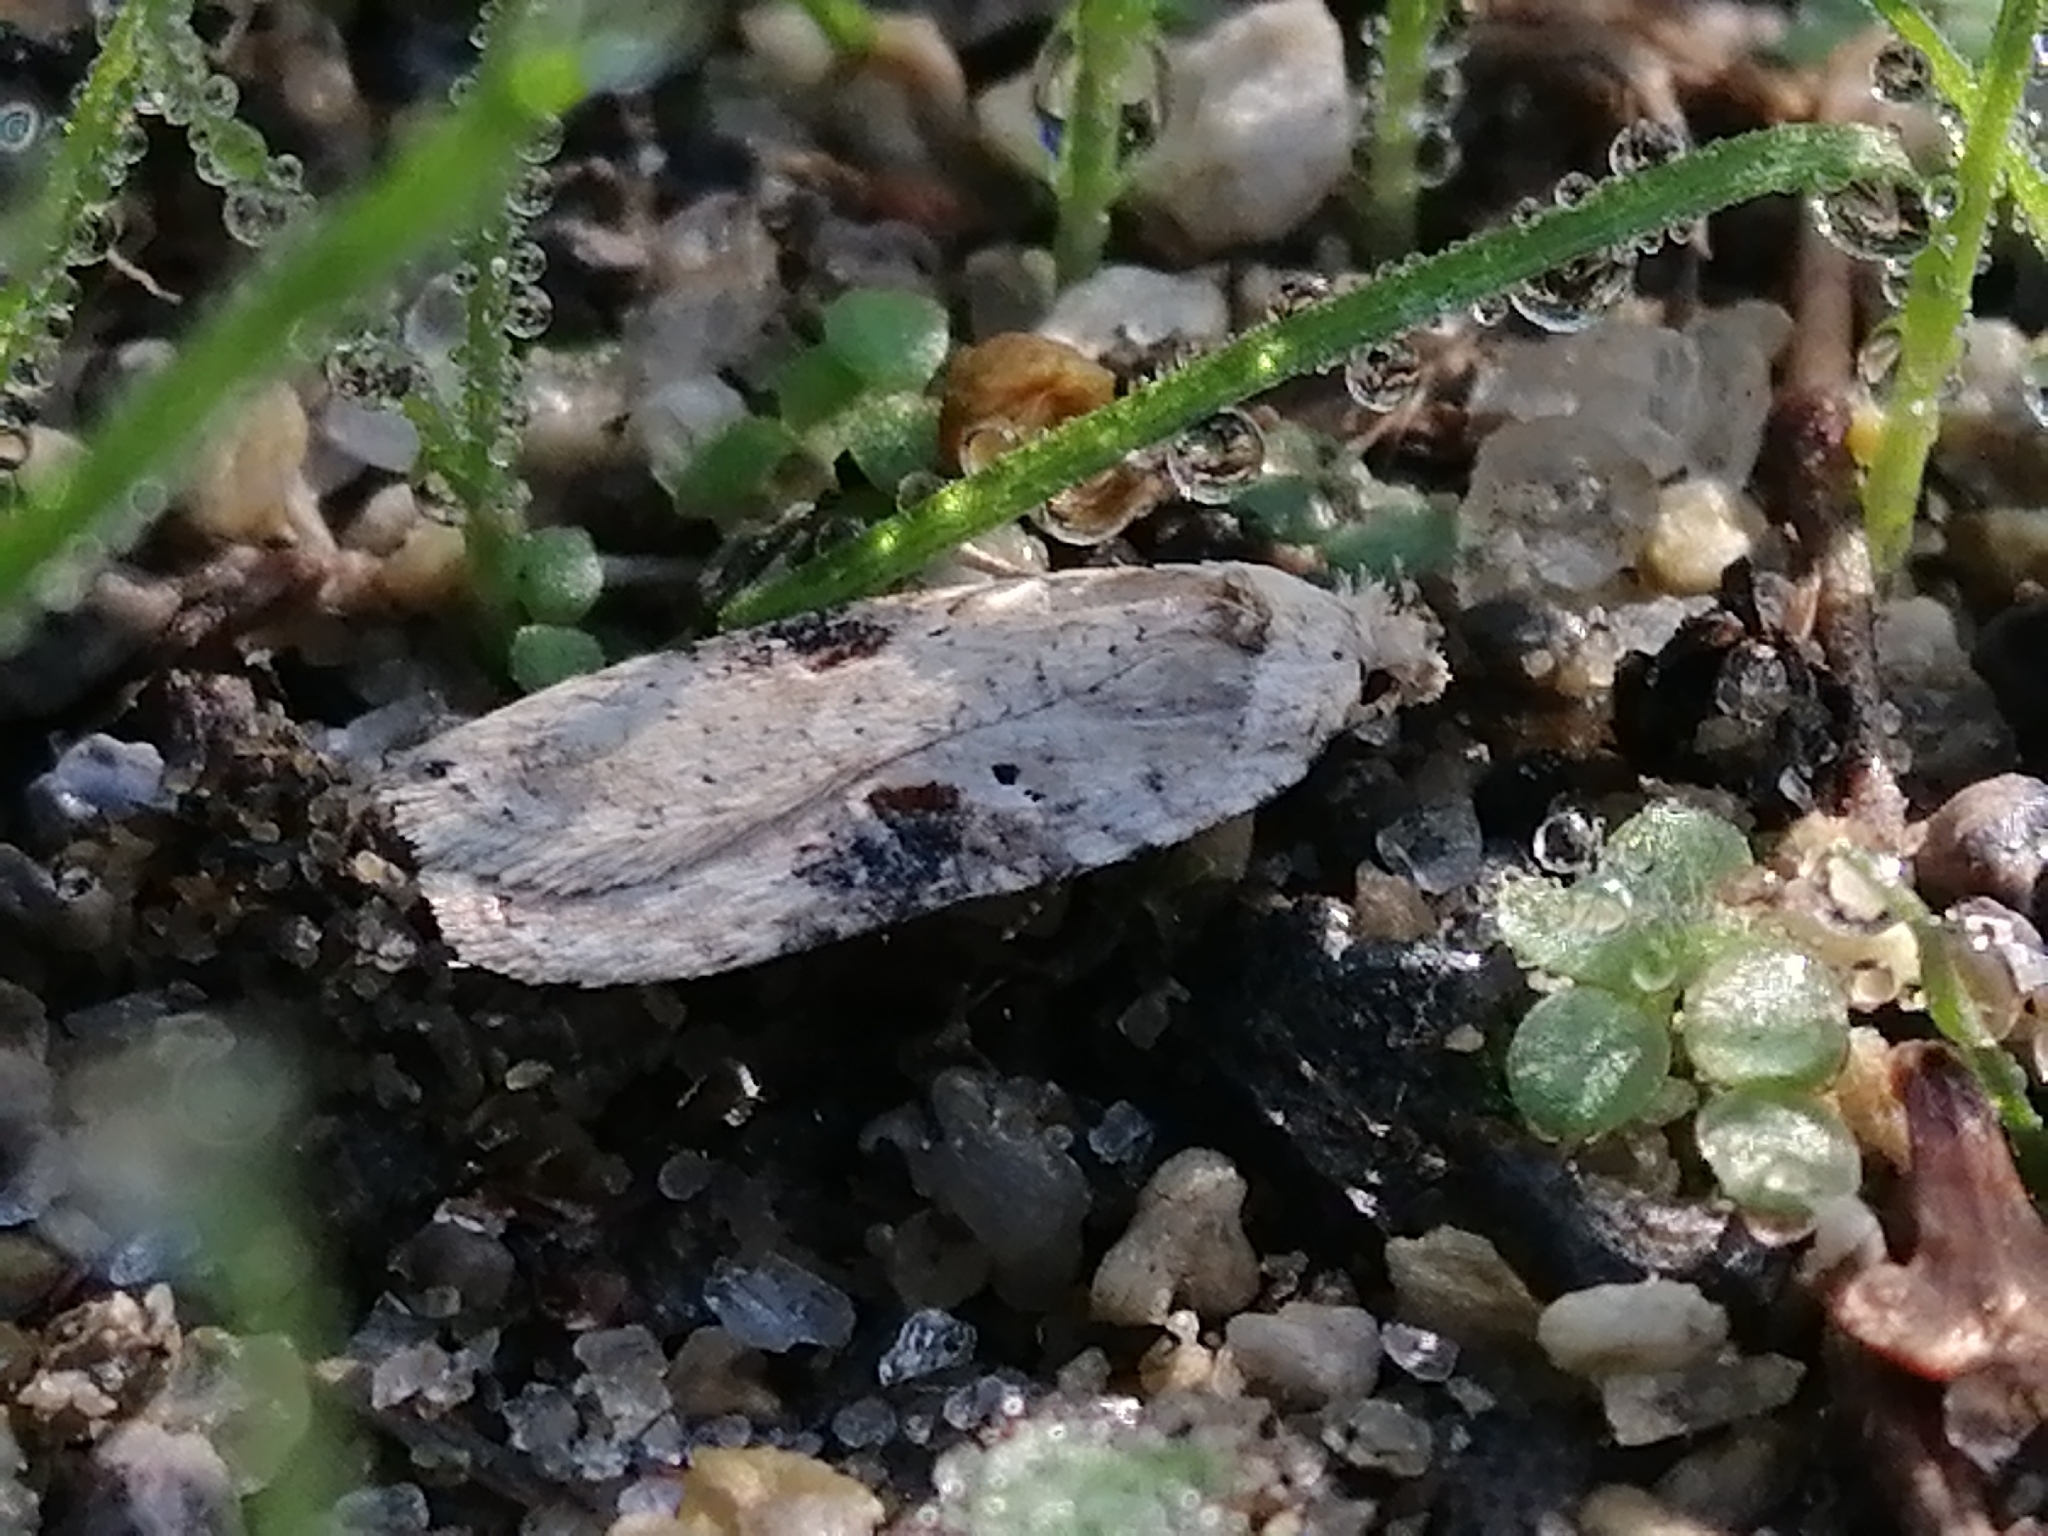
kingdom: Animalia
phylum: Arthropoda
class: Insecta
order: Lepidoptera
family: Depressariidae
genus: Agonopterix
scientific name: Agonopterix alstroemeriana
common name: Moth
